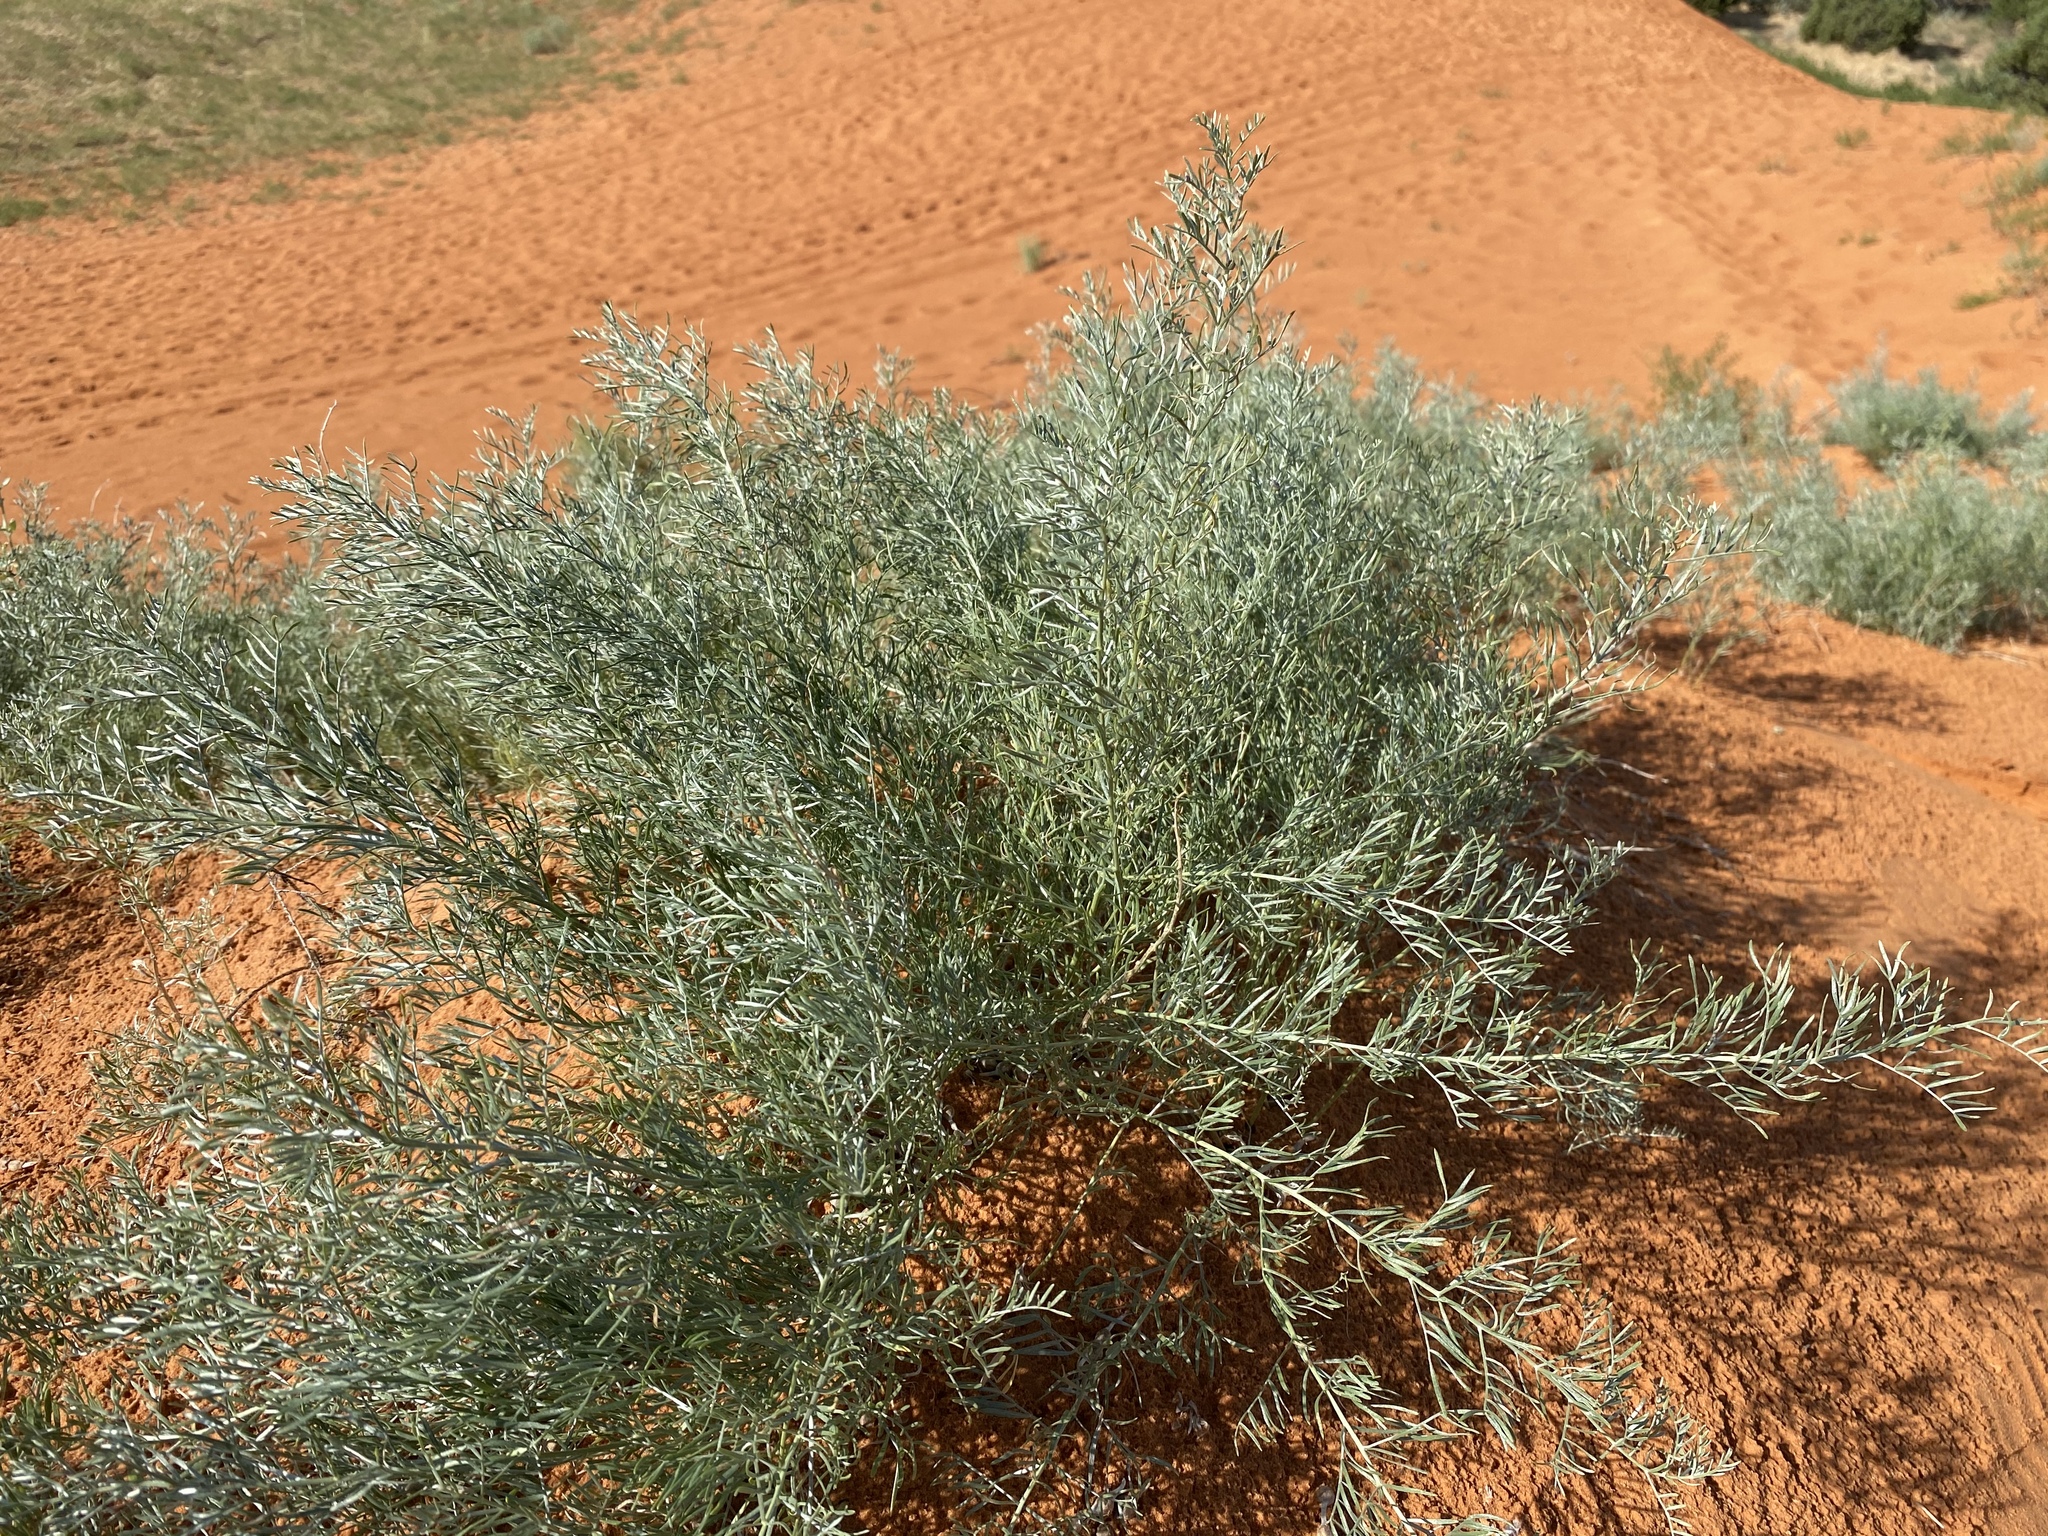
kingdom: Plantae
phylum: Tracheophyta
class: Magnoliopsida
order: Fabales
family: Fabaceae
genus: Sophora
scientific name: Sophora stenophylla
